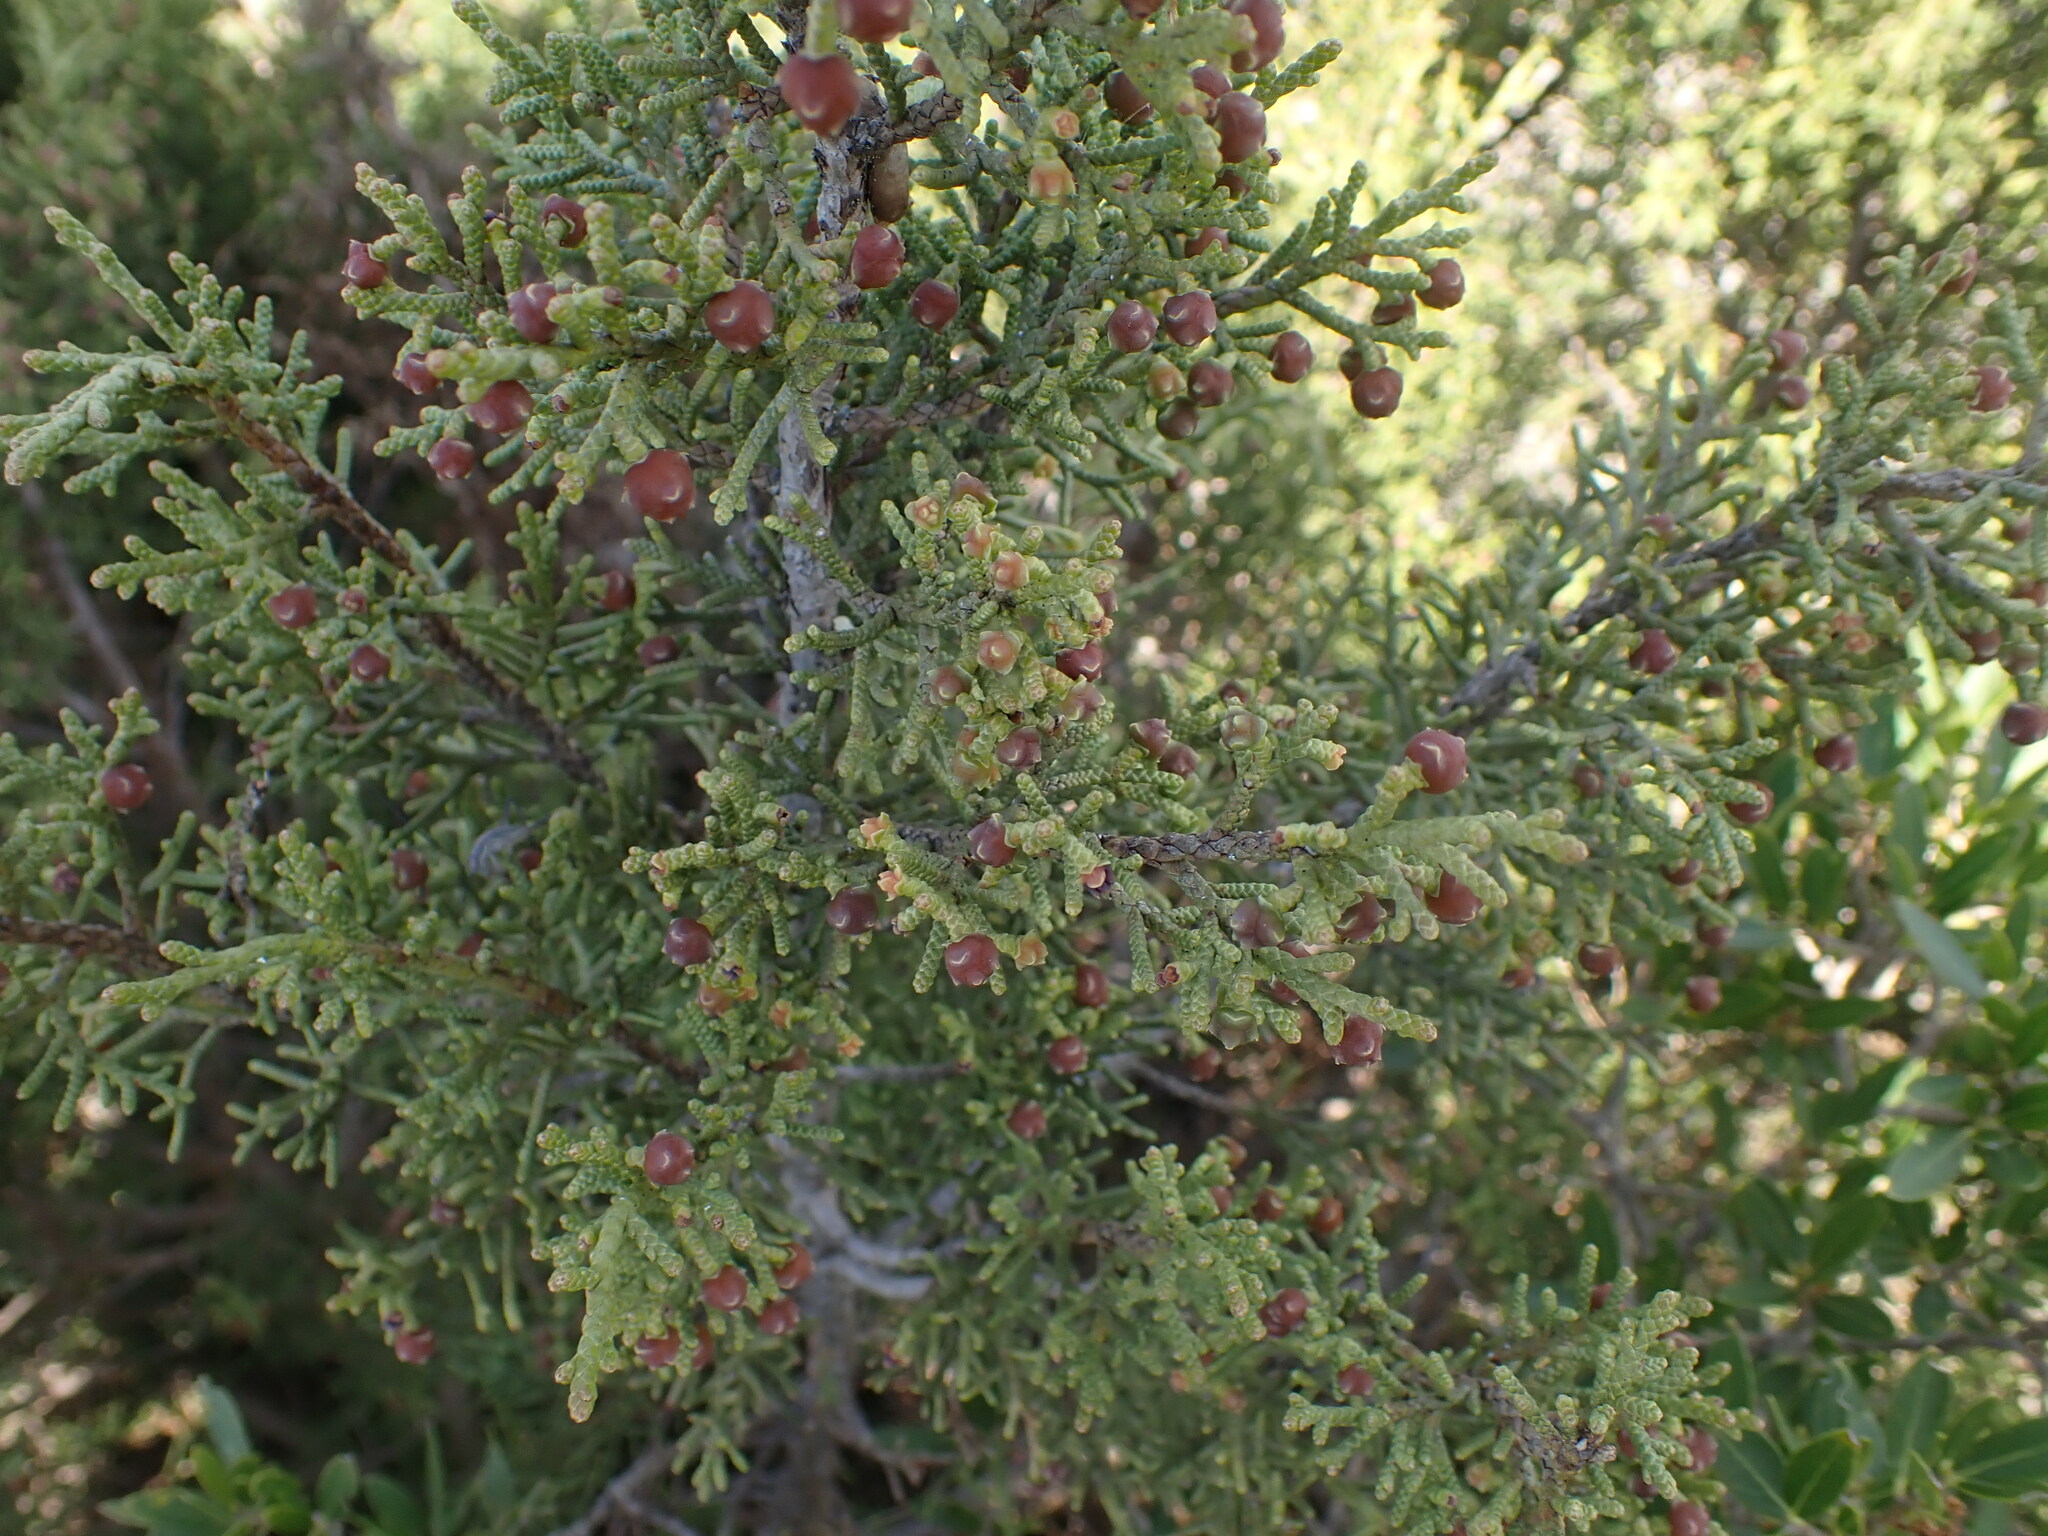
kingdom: Plantae
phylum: Tracheophyta
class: Pinopsida
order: Pinales
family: Cupressaceae
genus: Juniperus
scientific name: Juniperus phoenicea
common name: Phoenician juniper
